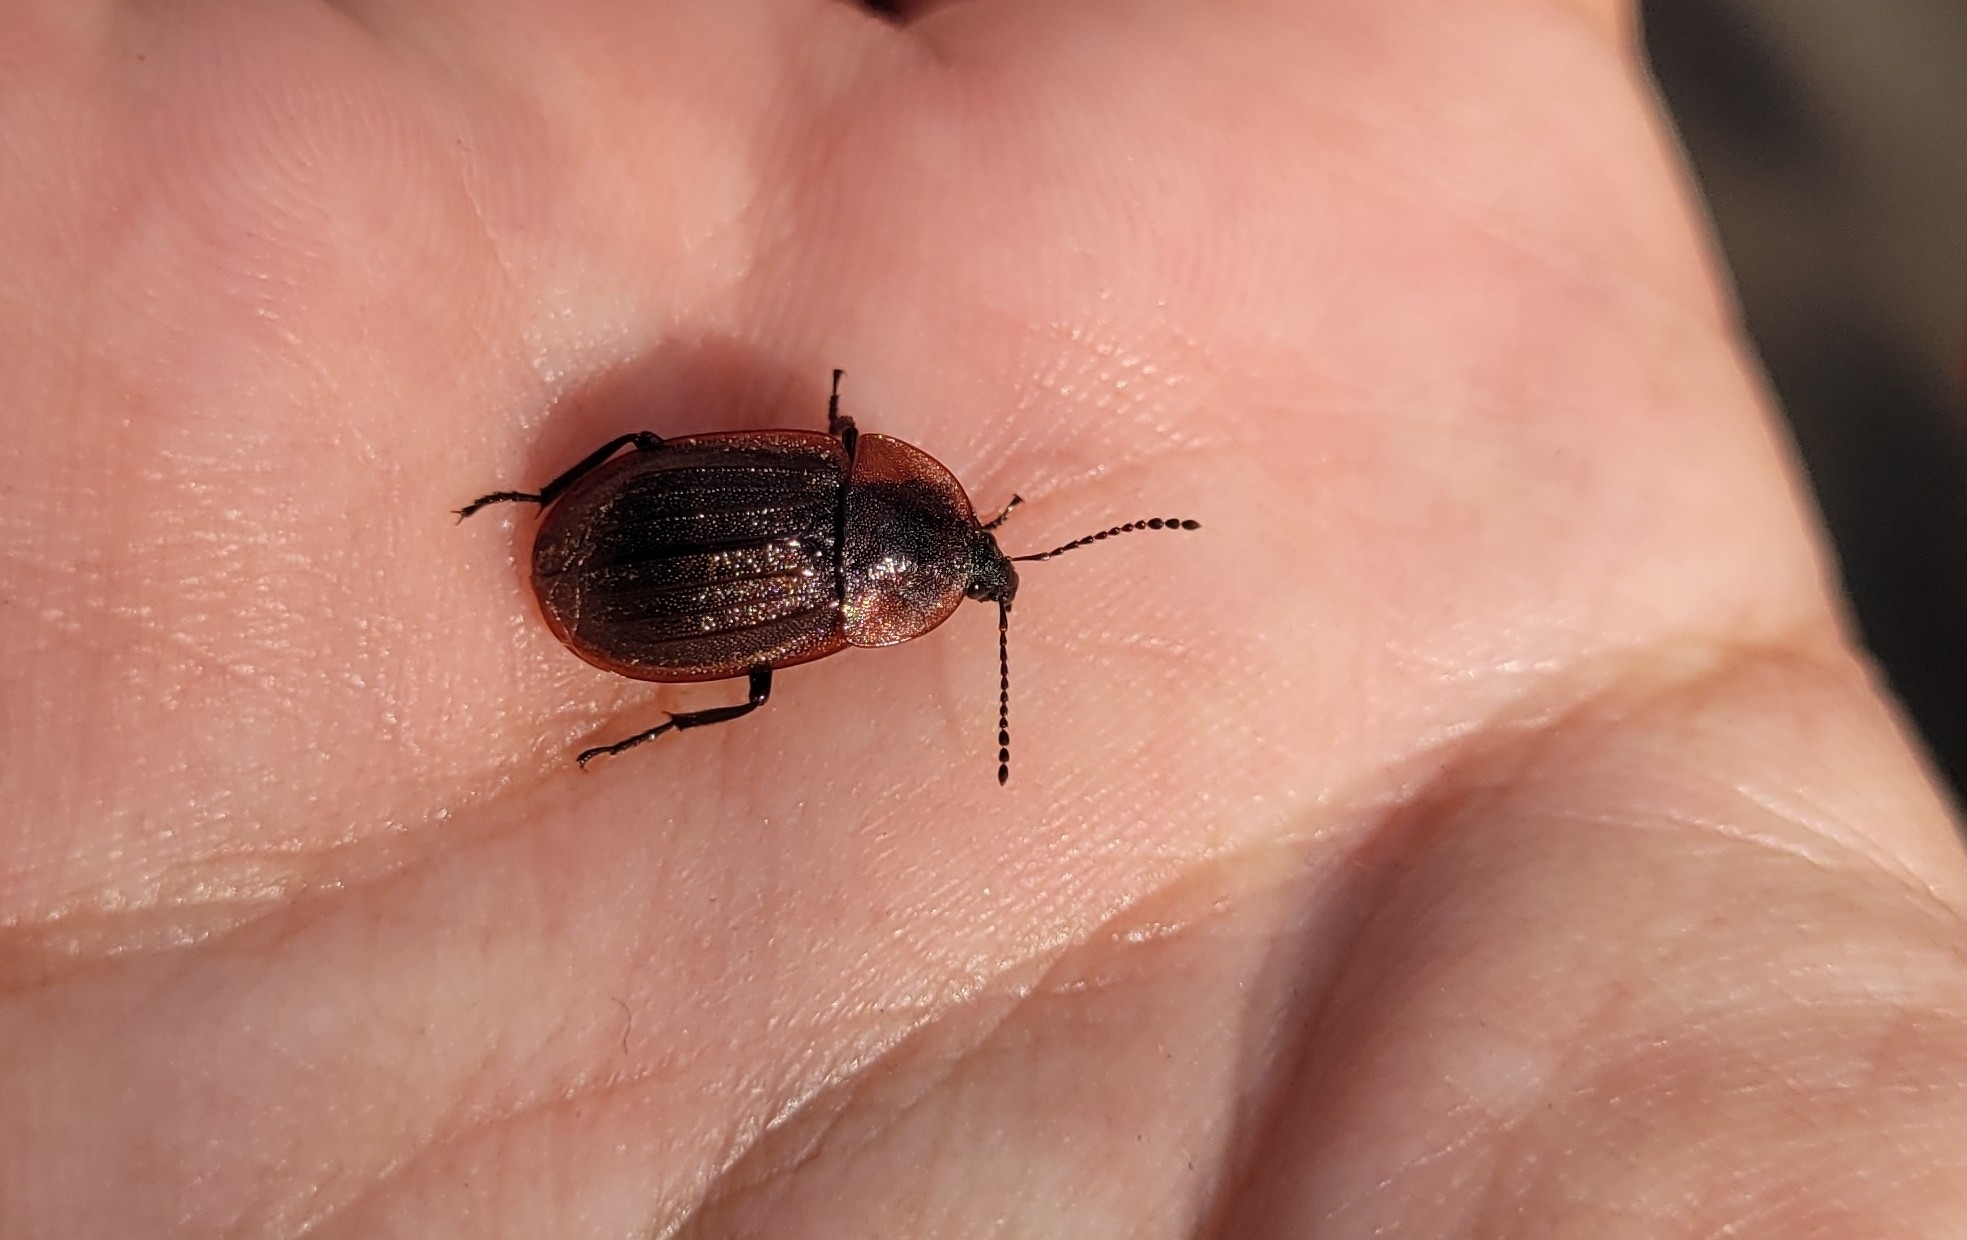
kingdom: Animalia
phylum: Arthropoda
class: Insecta
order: Coleoptera
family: Staphylinidae
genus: Silpha
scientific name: Silpha atrata
